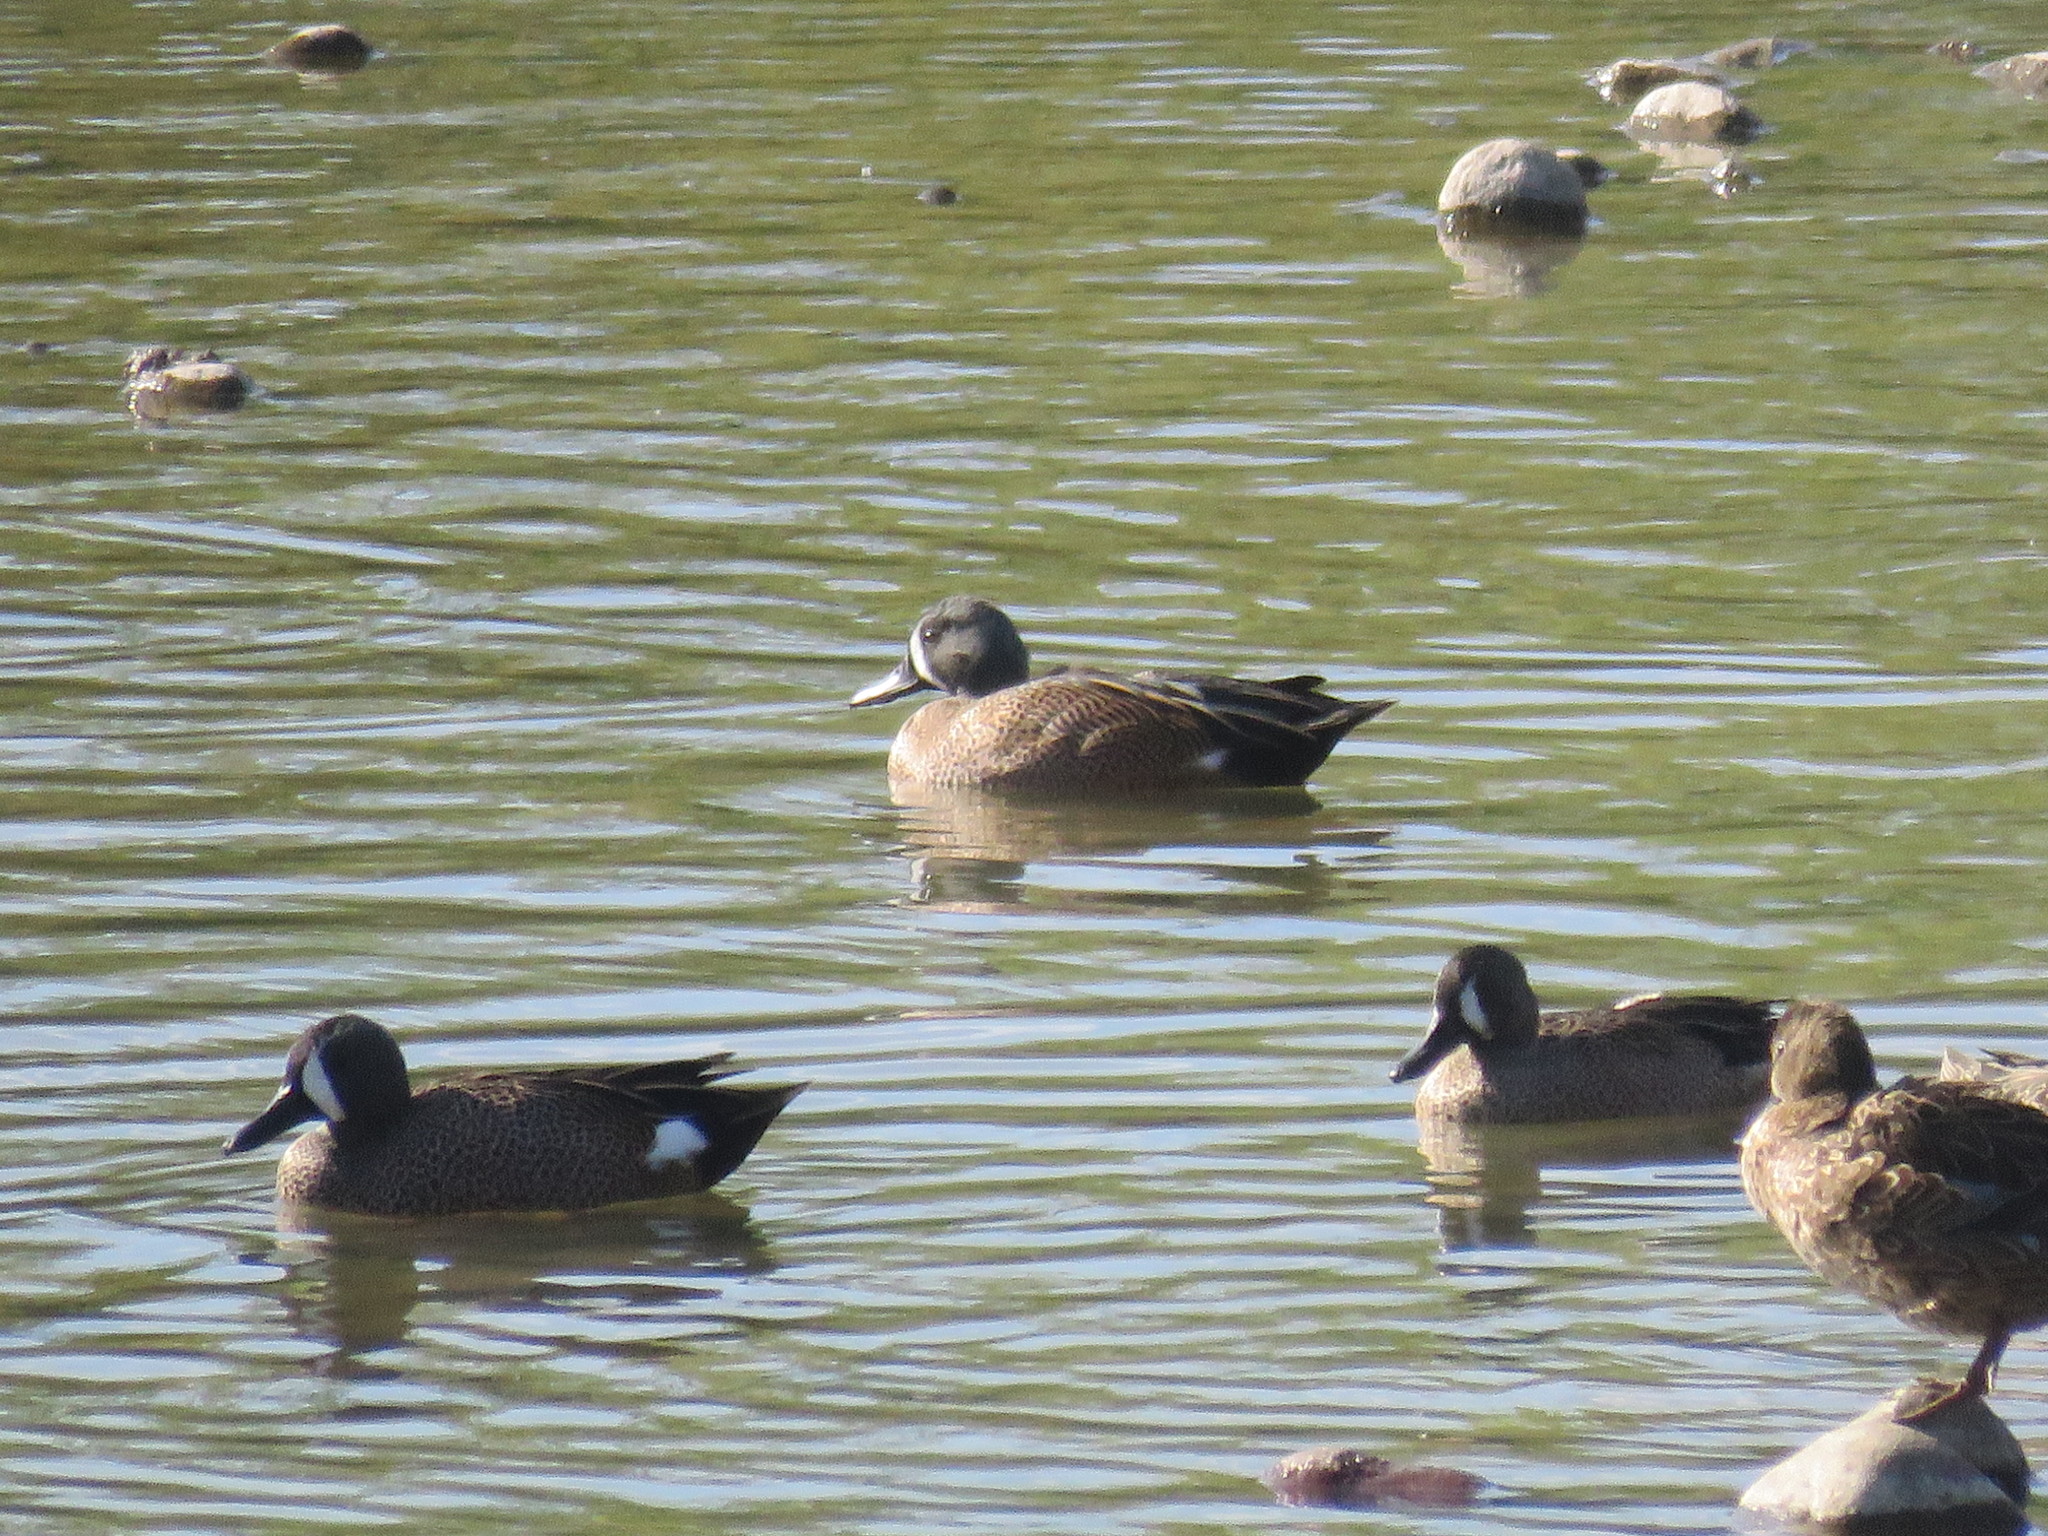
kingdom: Animalia
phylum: Chordata
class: Aves
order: Anseriformes
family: Anatidae
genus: Spatula
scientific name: Spatula discors
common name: Blue-winged teal
